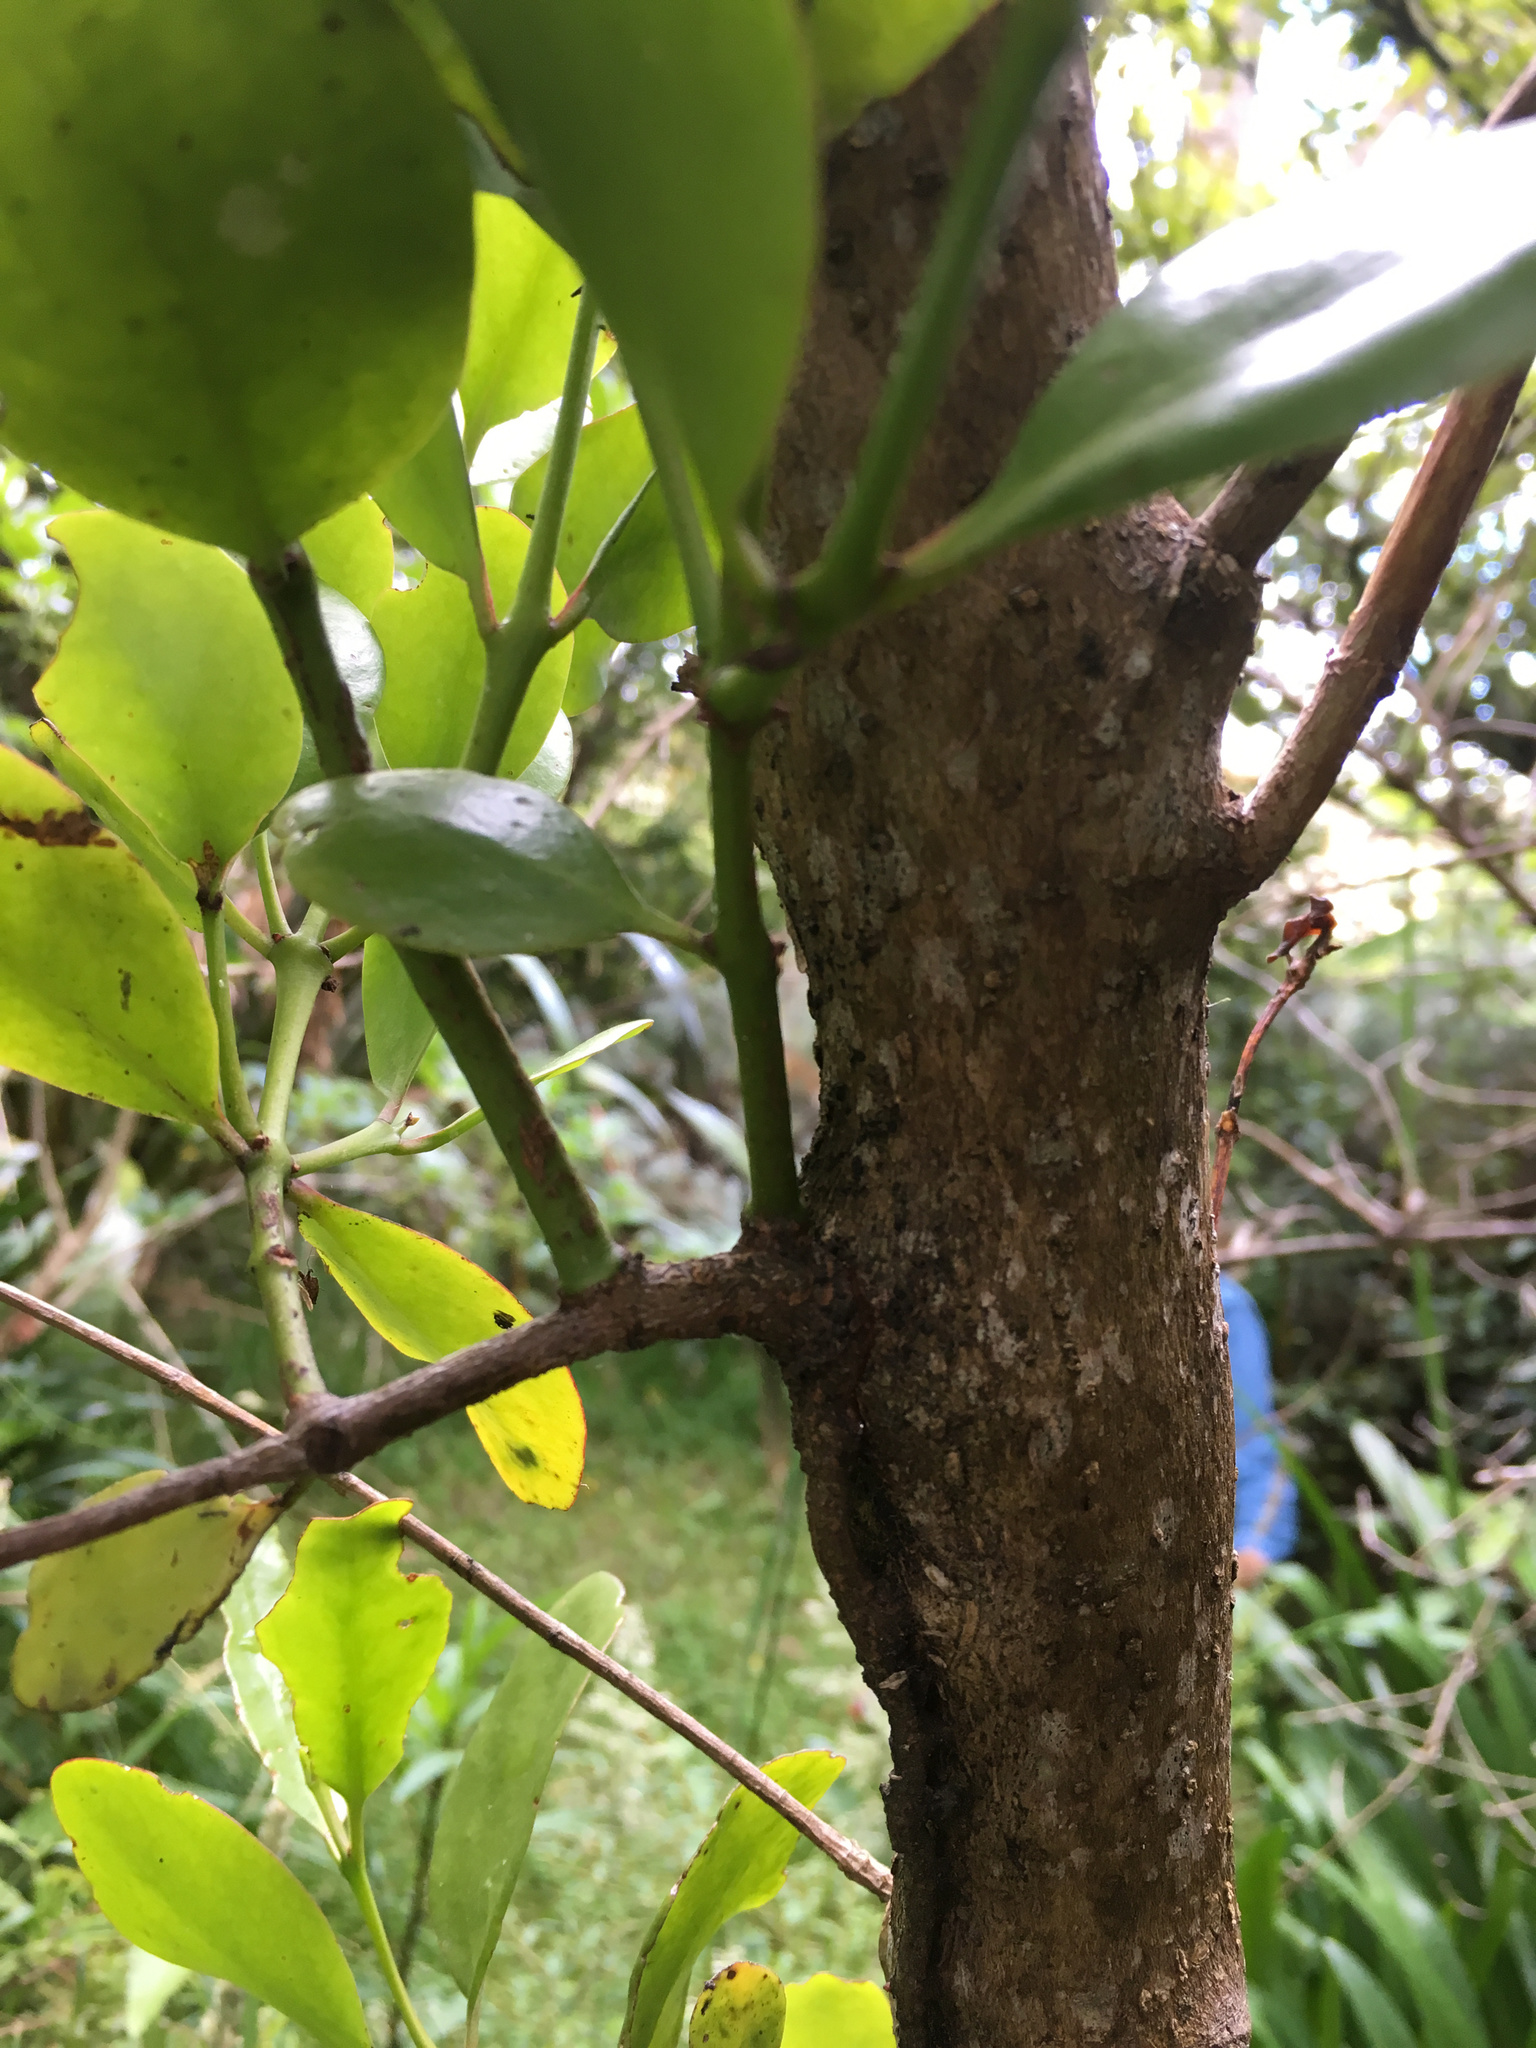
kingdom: Plantae
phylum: Tracheophyta
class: Magnoliopsida
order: Santalales
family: Loranthaceae
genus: Ileostylus
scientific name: Ileostylus micranthus
